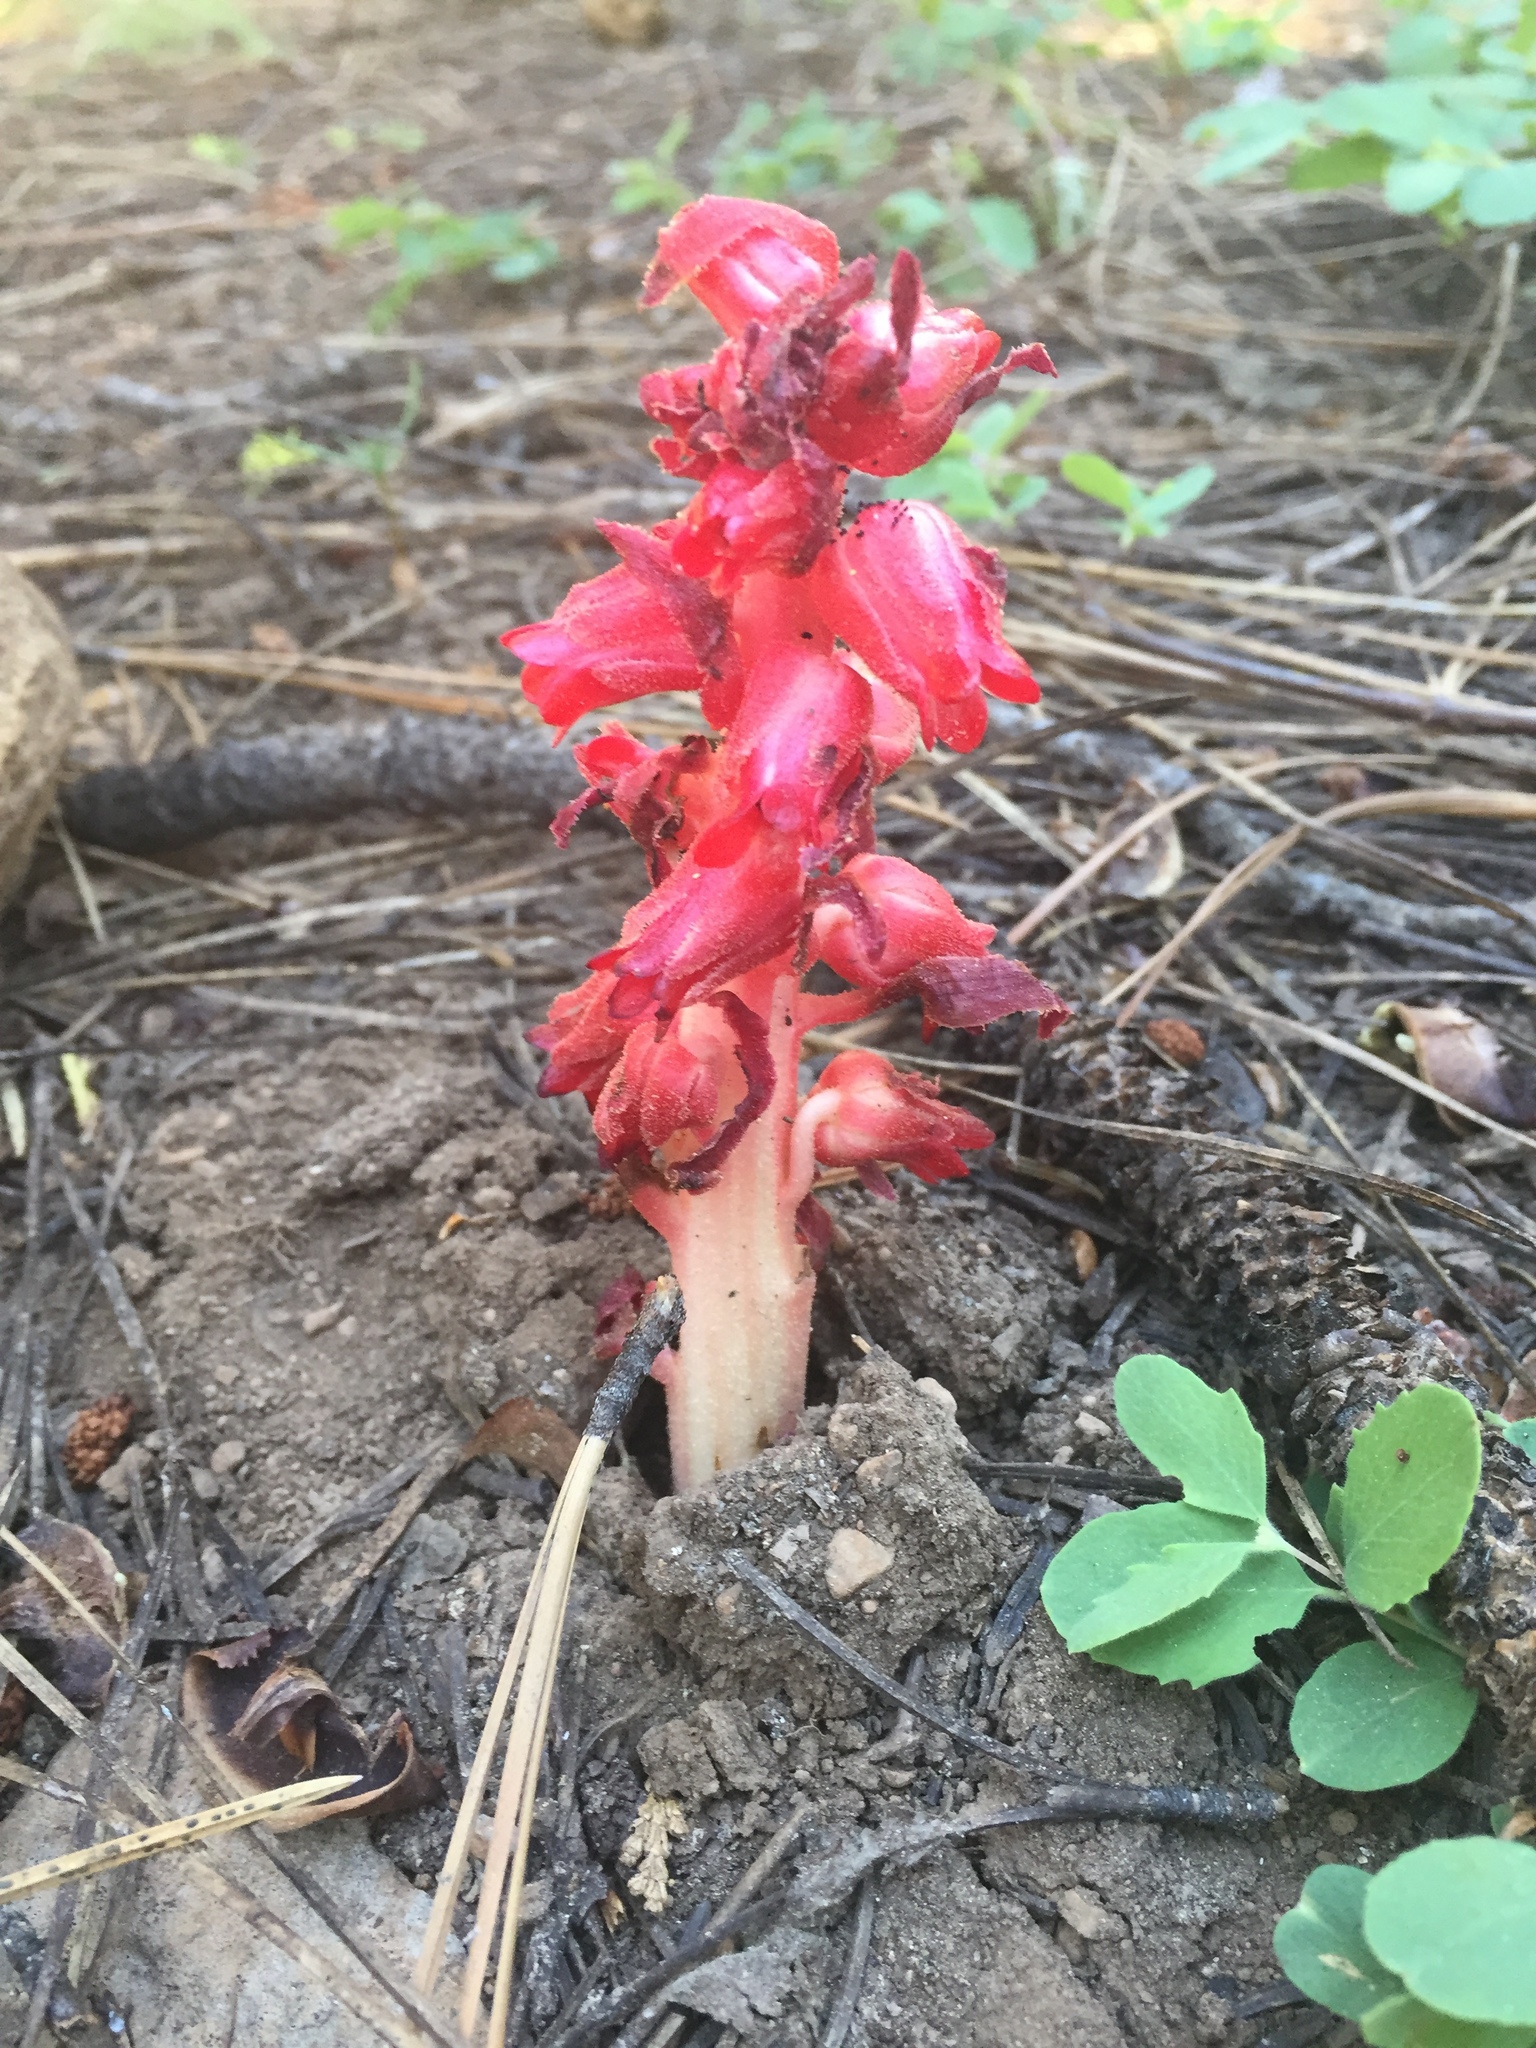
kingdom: Plantae
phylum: Tracheophyta
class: Magnoliopsida
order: Ericales
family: Ericaceae
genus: Sarcodes
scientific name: Sarcodes sanguinea
